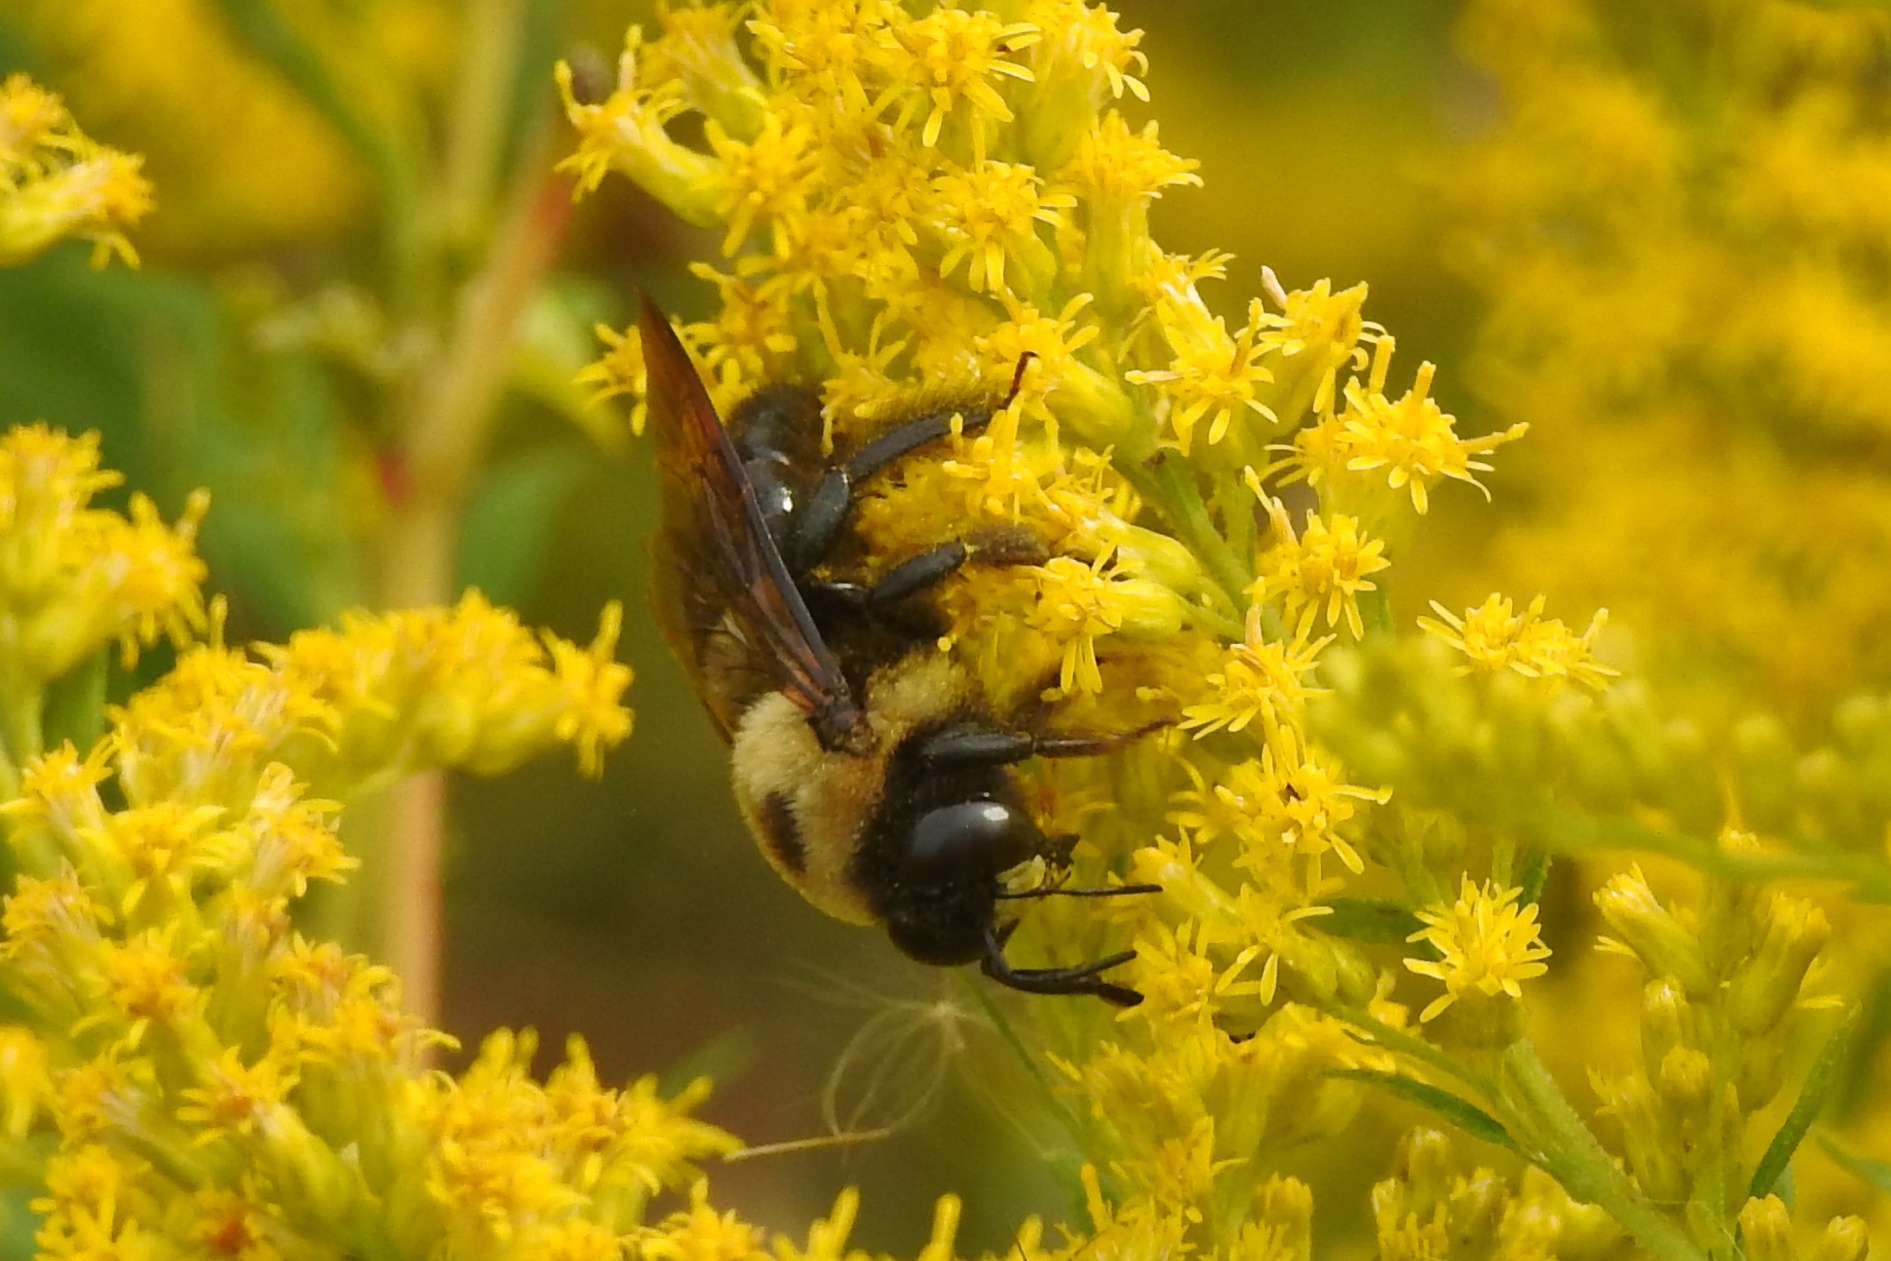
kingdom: Animalia
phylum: Arthropoda
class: Insecta
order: Hymenoptera
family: Apidae
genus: Xylocopa
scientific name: Xylocopa virginica
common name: Carpenter bee
